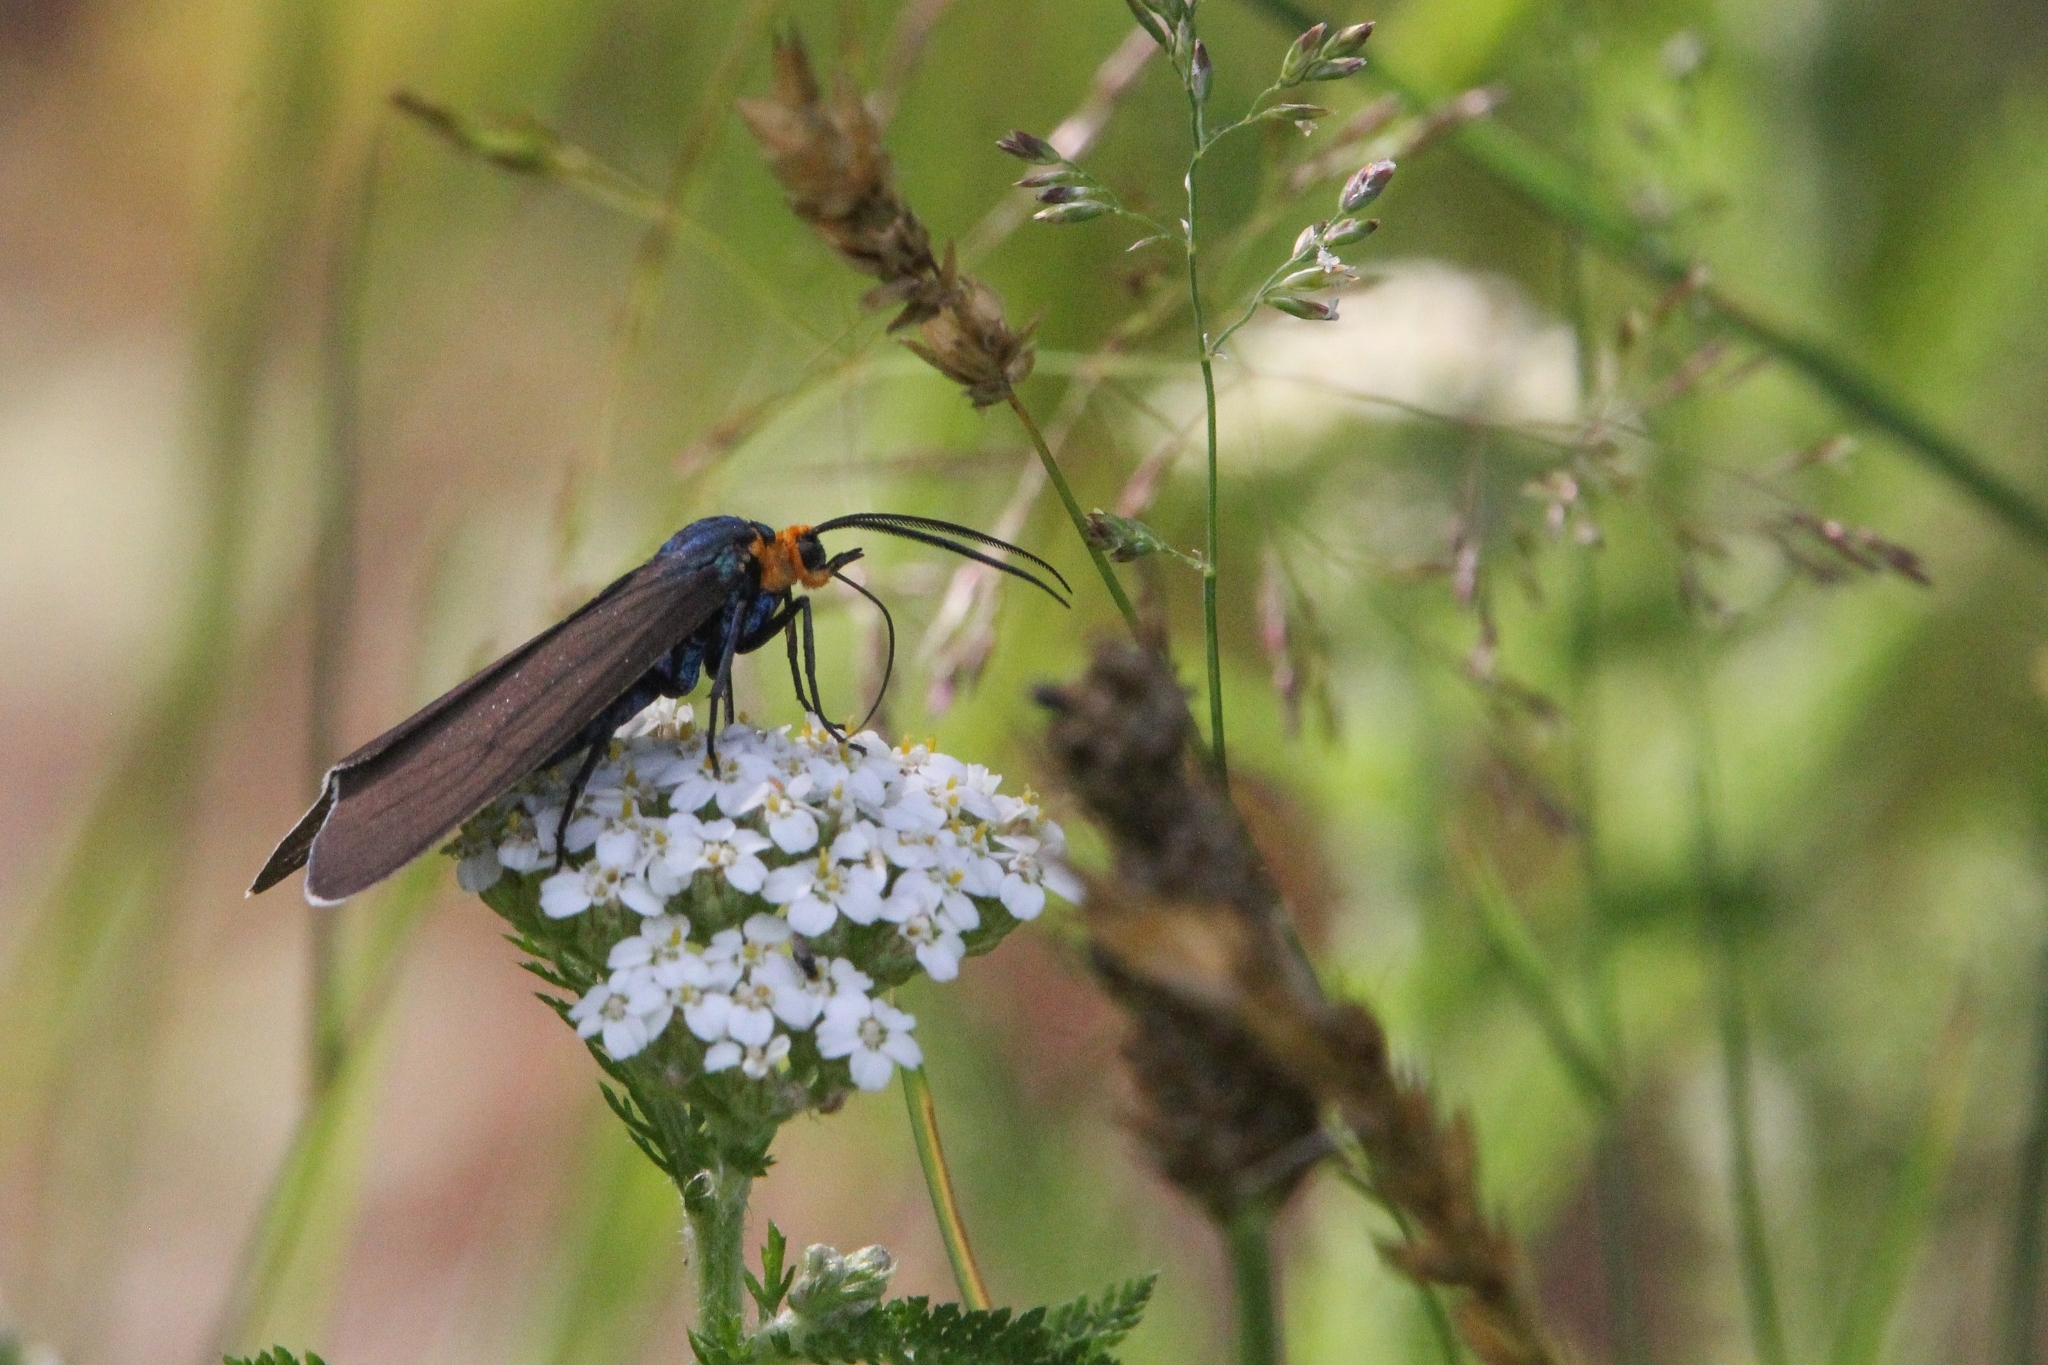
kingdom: Animalia
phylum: Arthropoda
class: Insecta
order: Lepidoptera
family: Erebidae
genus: Ctenucha
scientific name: Ctenucha virginica
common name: Virginia ctenucha moth
